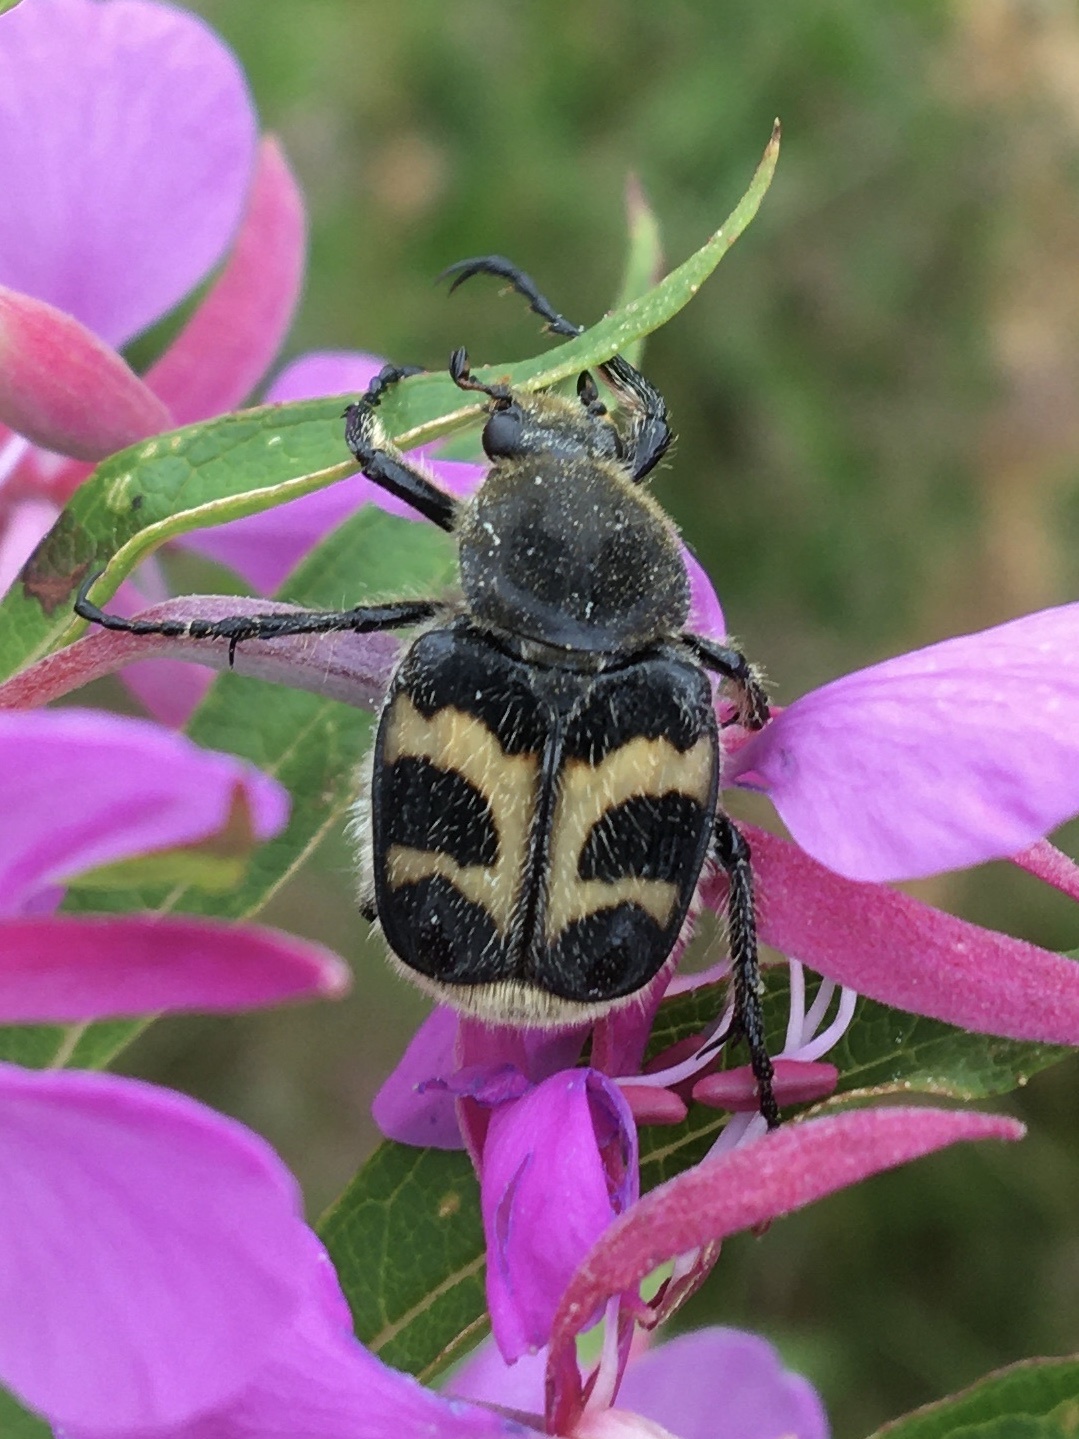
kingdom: Animalia
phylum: Arthropoda
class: Insecta
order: Coleoptera
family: Scarabaeidae
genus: Trichius
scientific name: Trichius fasciatus
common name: Bee beetle
